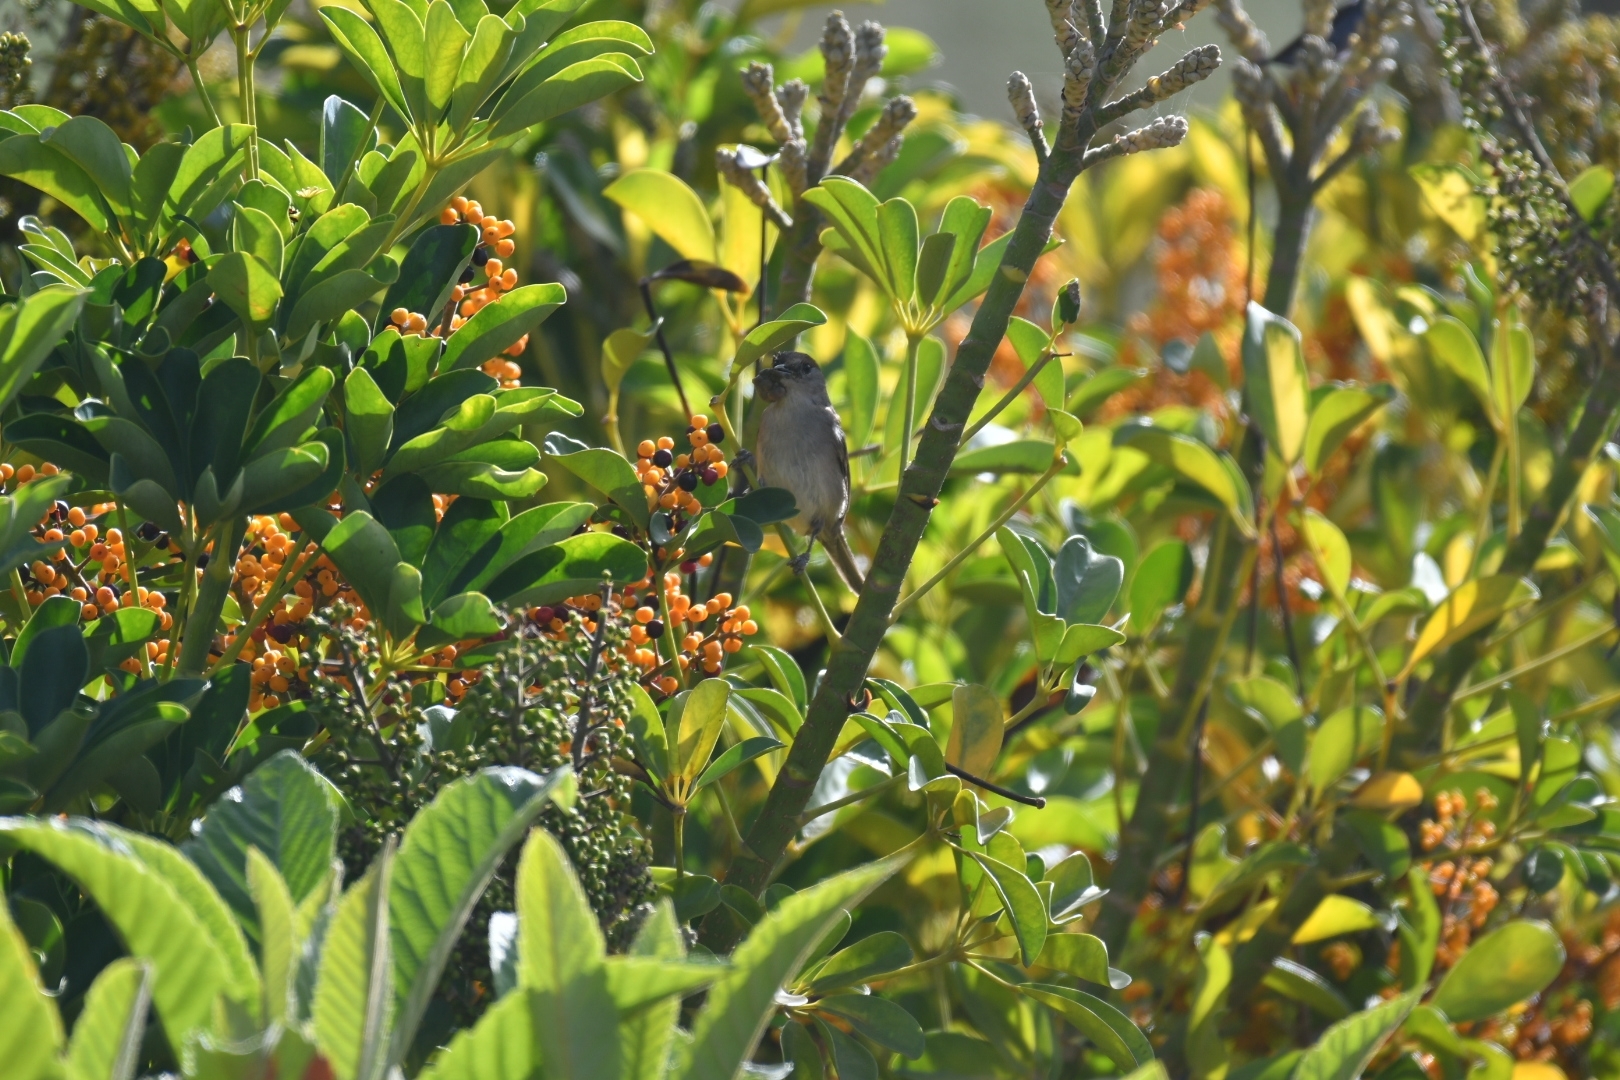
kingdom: Animalia
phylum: Chordata
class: Aves
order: Passeriformes
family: Sylviidae
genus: Sylvia
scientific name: Sylvia atricapilla
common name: Eurasian blackcap
